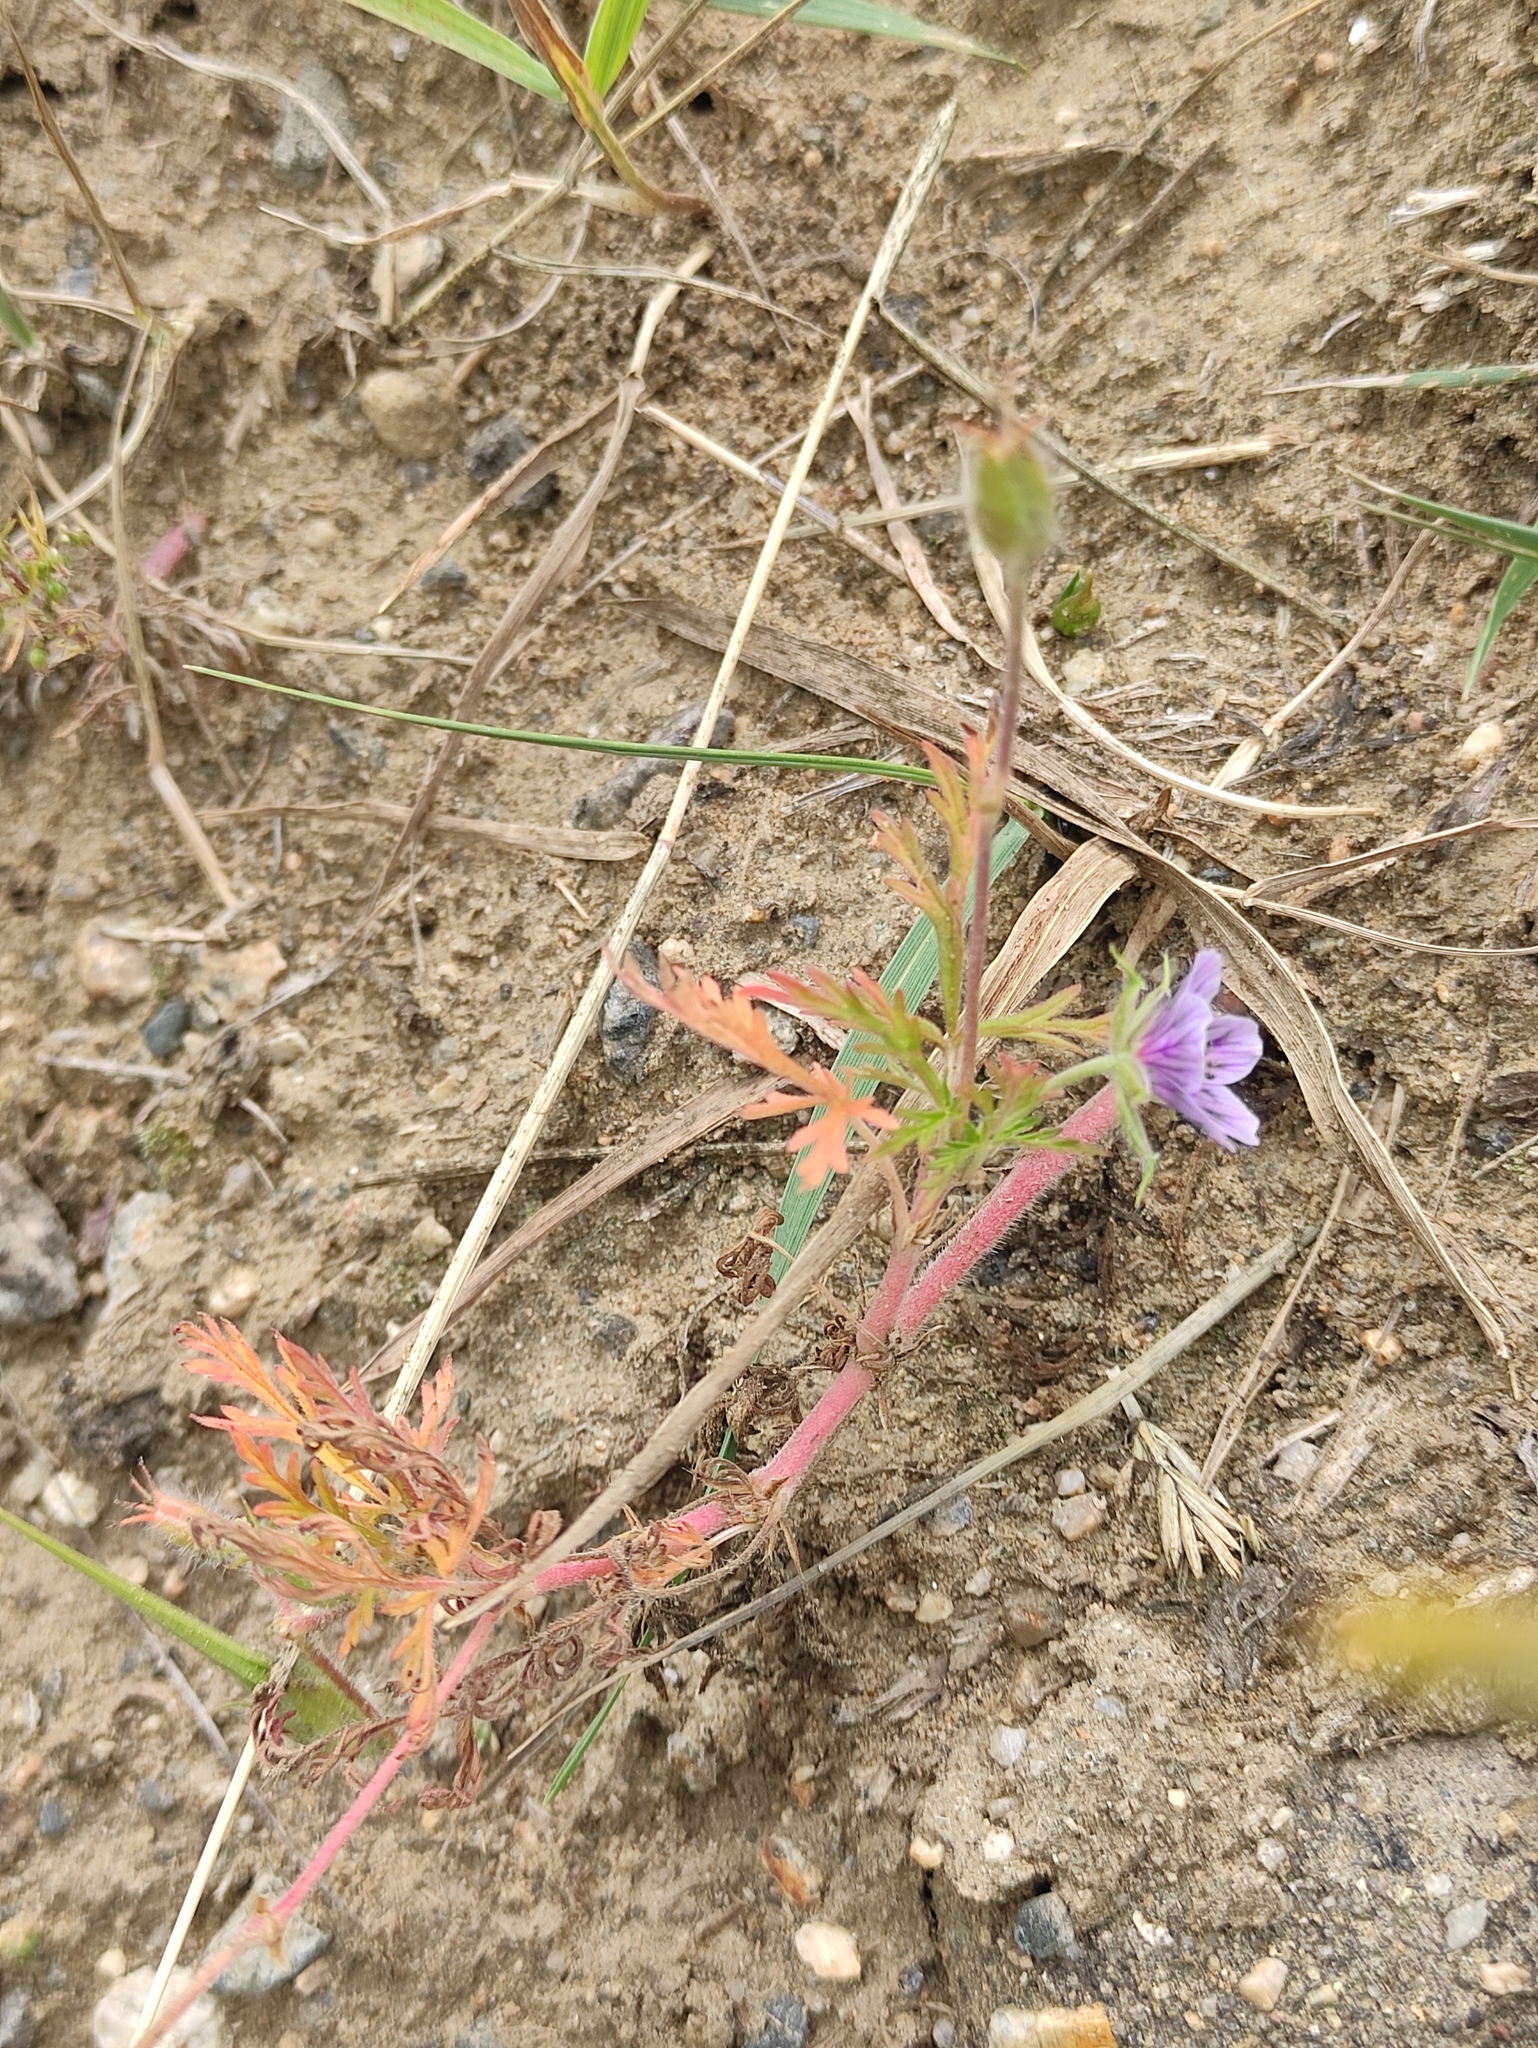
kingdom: Plantae
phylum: Tracheophyta
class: Magnoliopsida
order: Geraniales
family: Geraniaceae
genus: Erodium
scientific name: Erodium stephanianum
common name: Stephen's stork's bill
